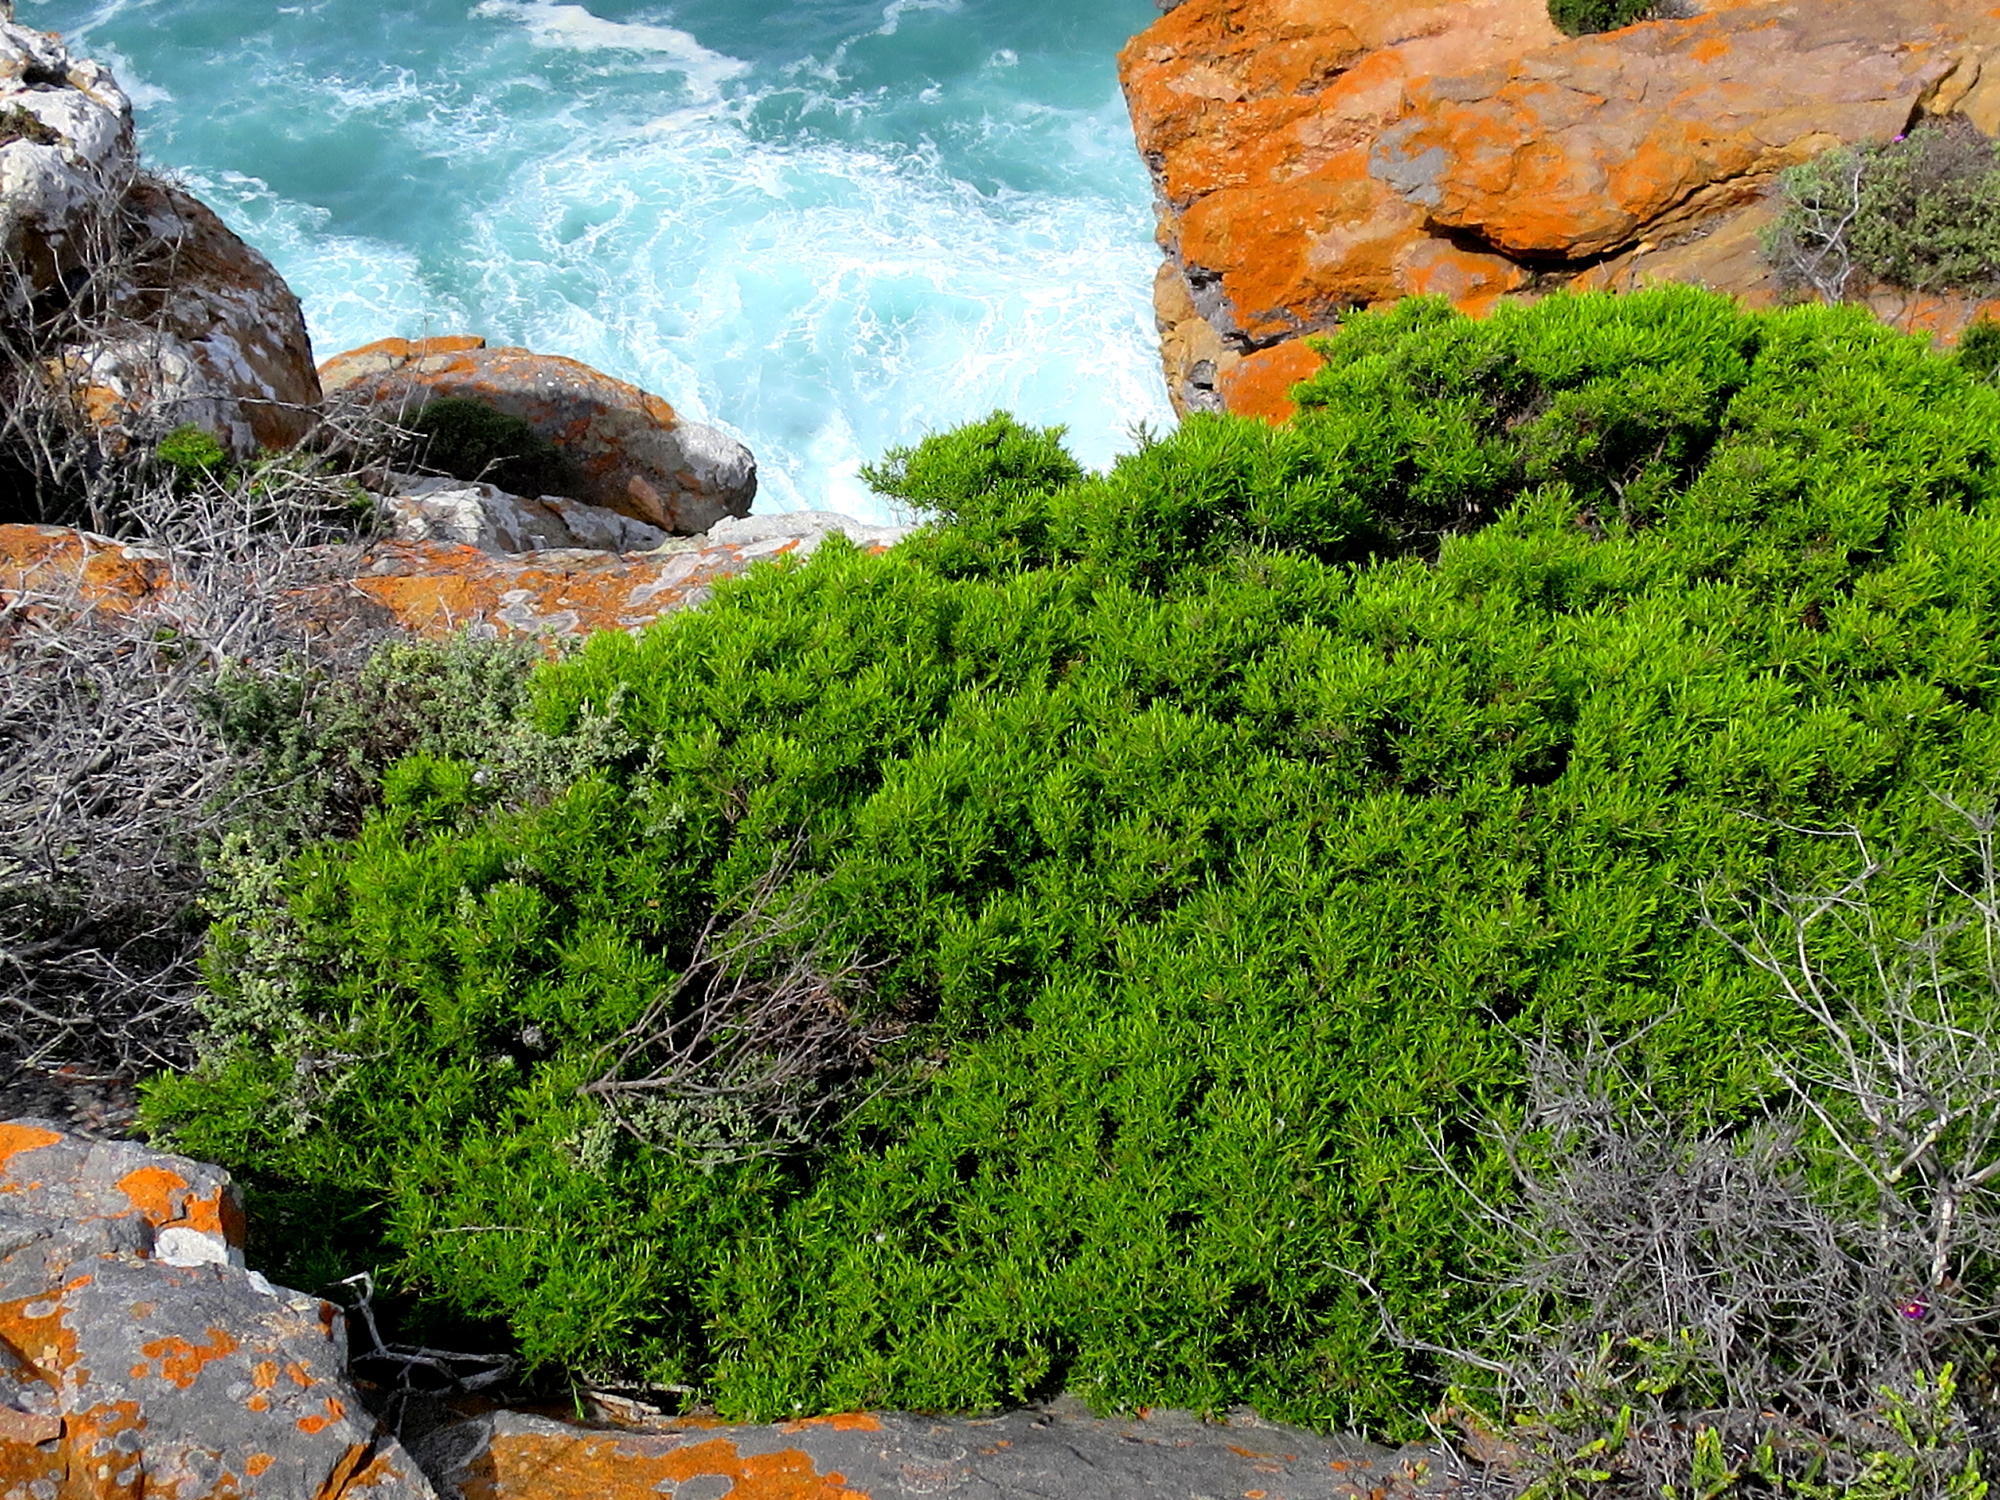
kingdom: Plantae
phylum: Tracheophyta
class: Magnoliopsida
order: Sapindales
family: Rutaceae
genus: Coleonema
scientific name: Coleonema album
